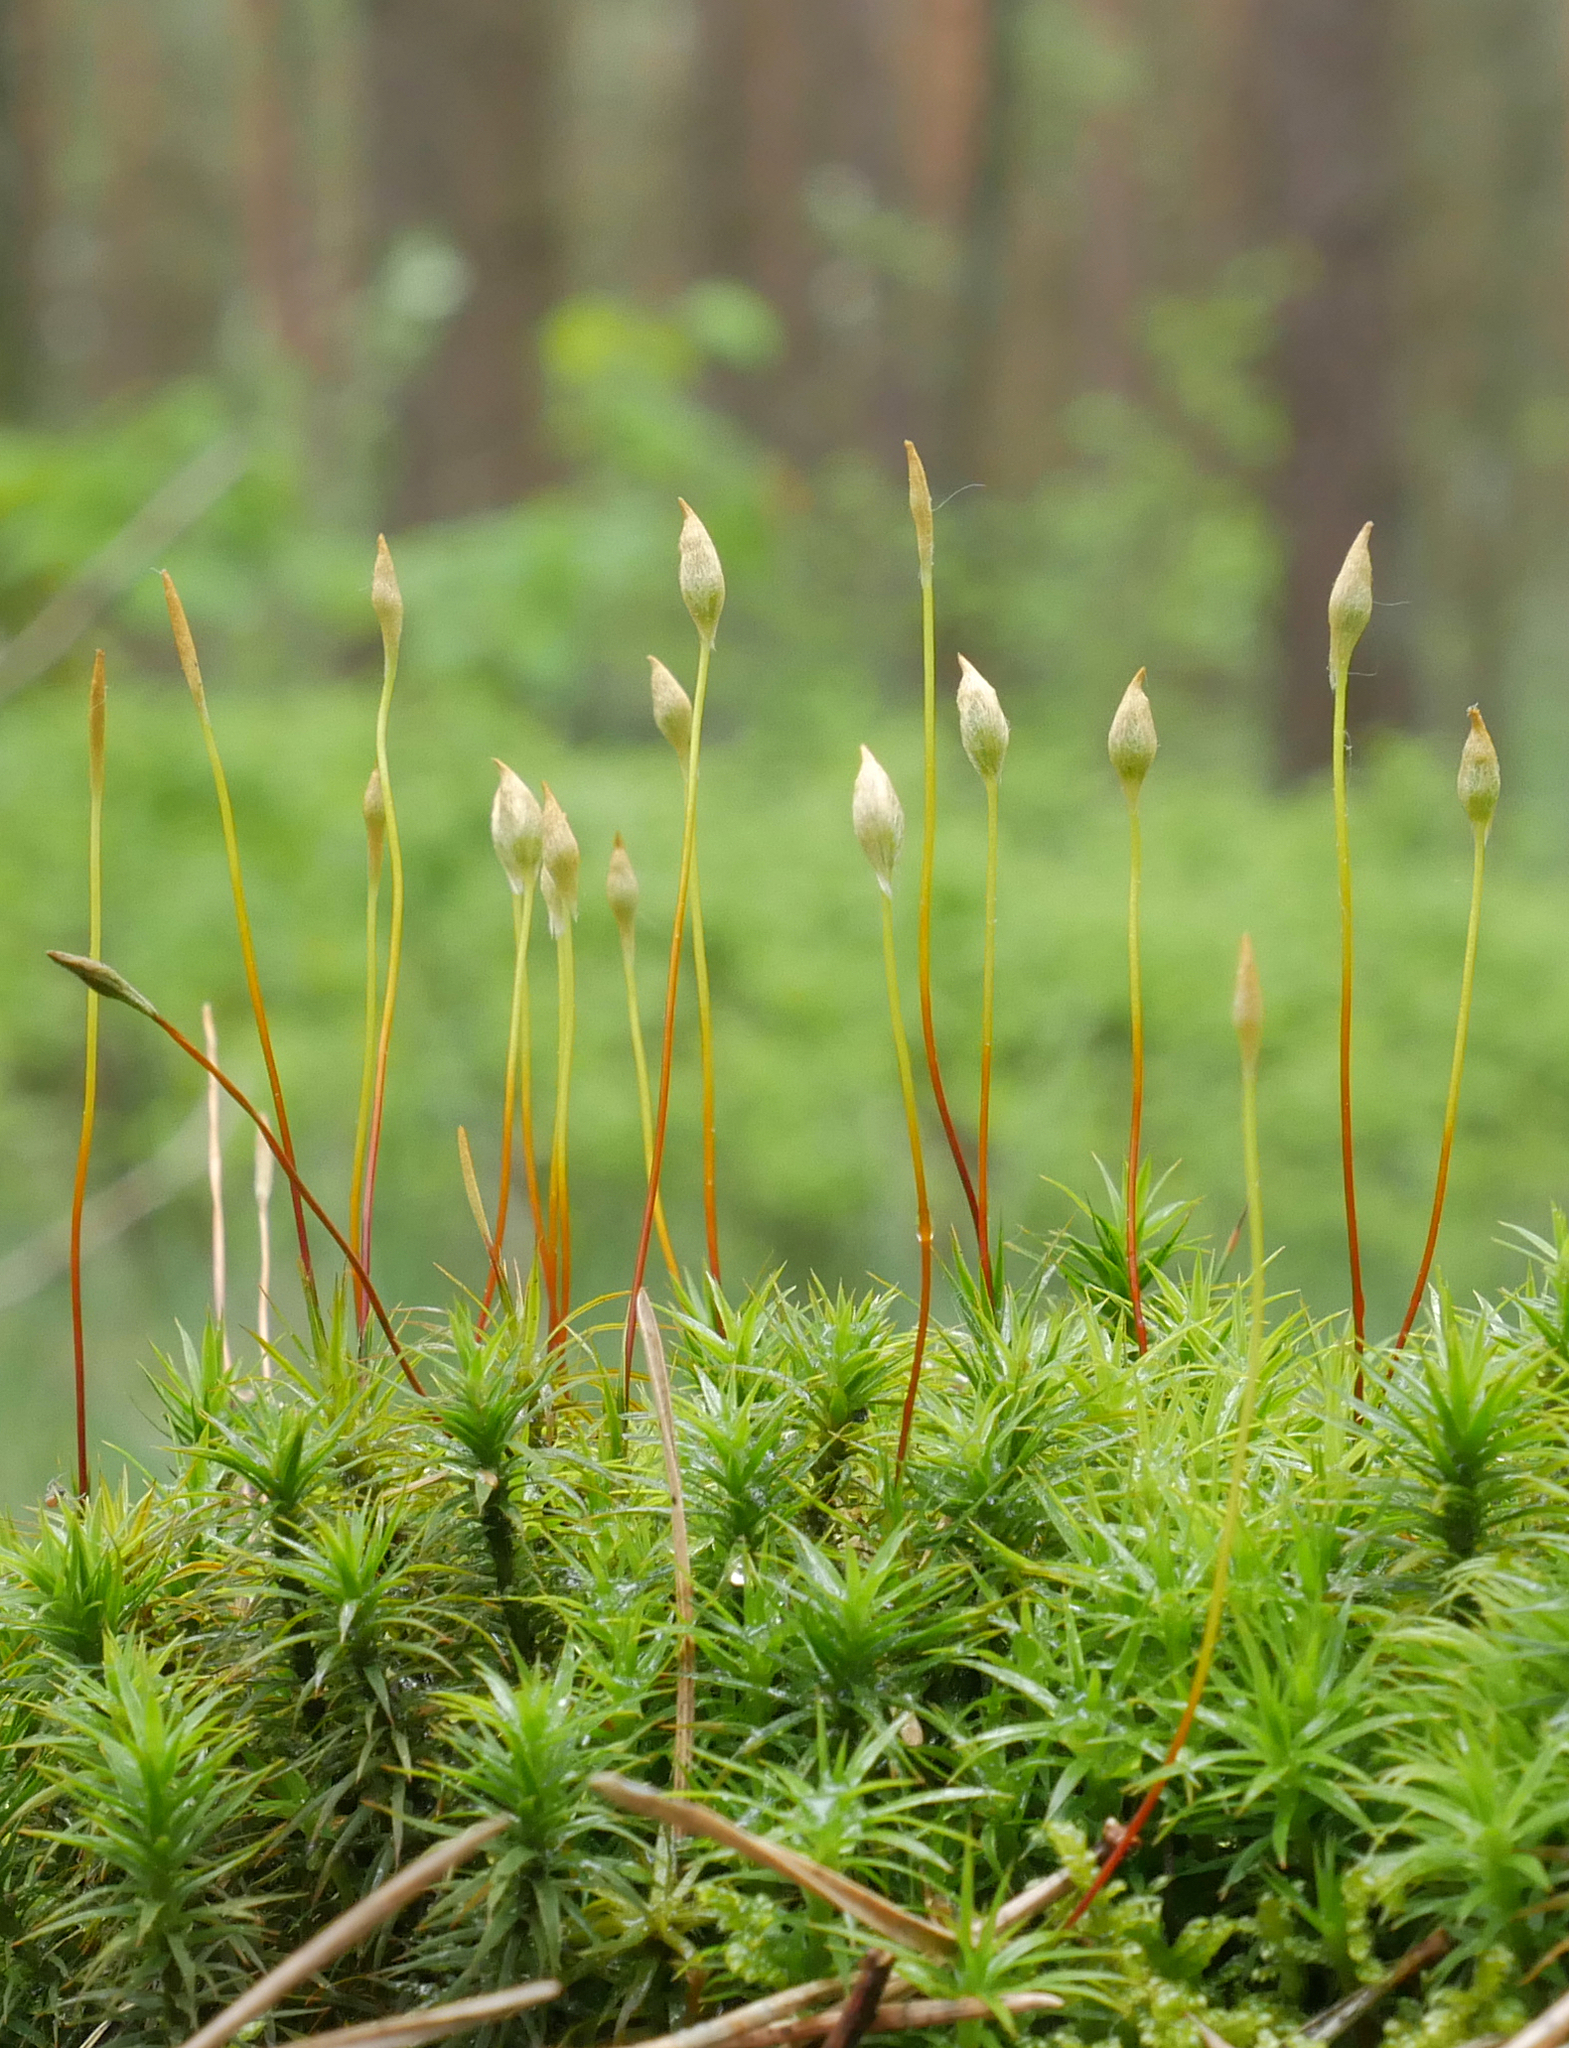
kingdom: Plantae
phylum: Bryophyta
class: Polytrichopsida
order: Polytrichales
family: Polytrichaceae
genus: Polytrichum
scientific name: Polytrichum commune
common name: Common haircap
